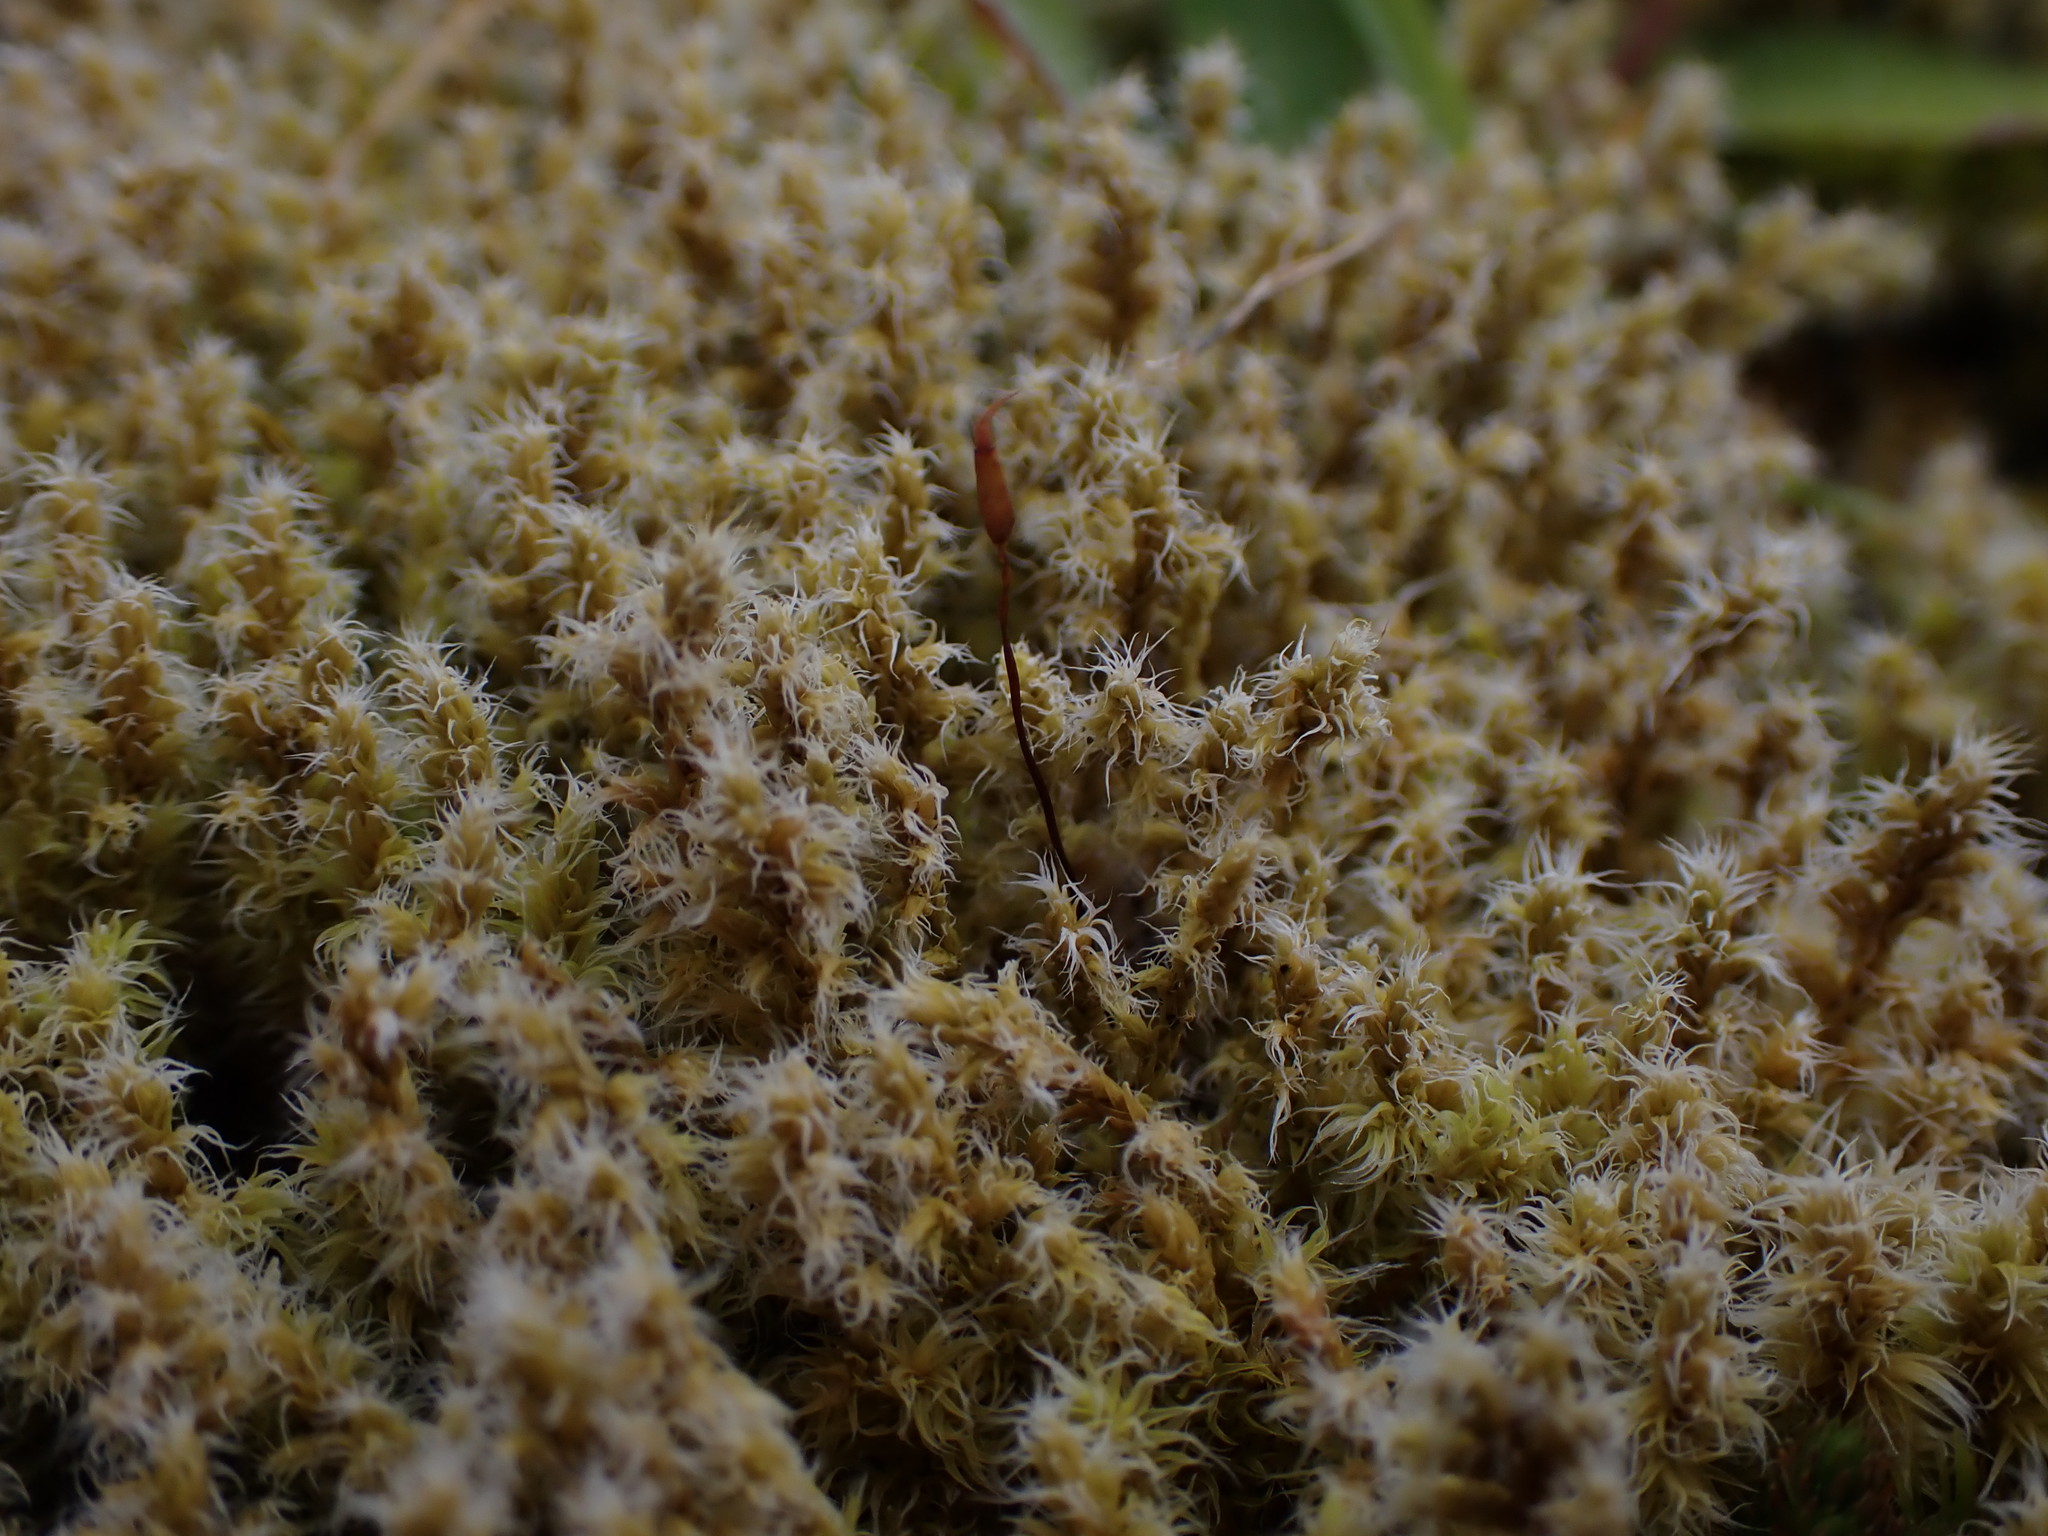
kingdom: Plantae
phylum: Bryophyta
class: Bryopsida
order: Grimmiales
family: Grimmiaceae
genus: Niphotrichum
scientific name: Niphotrichum elongatum
